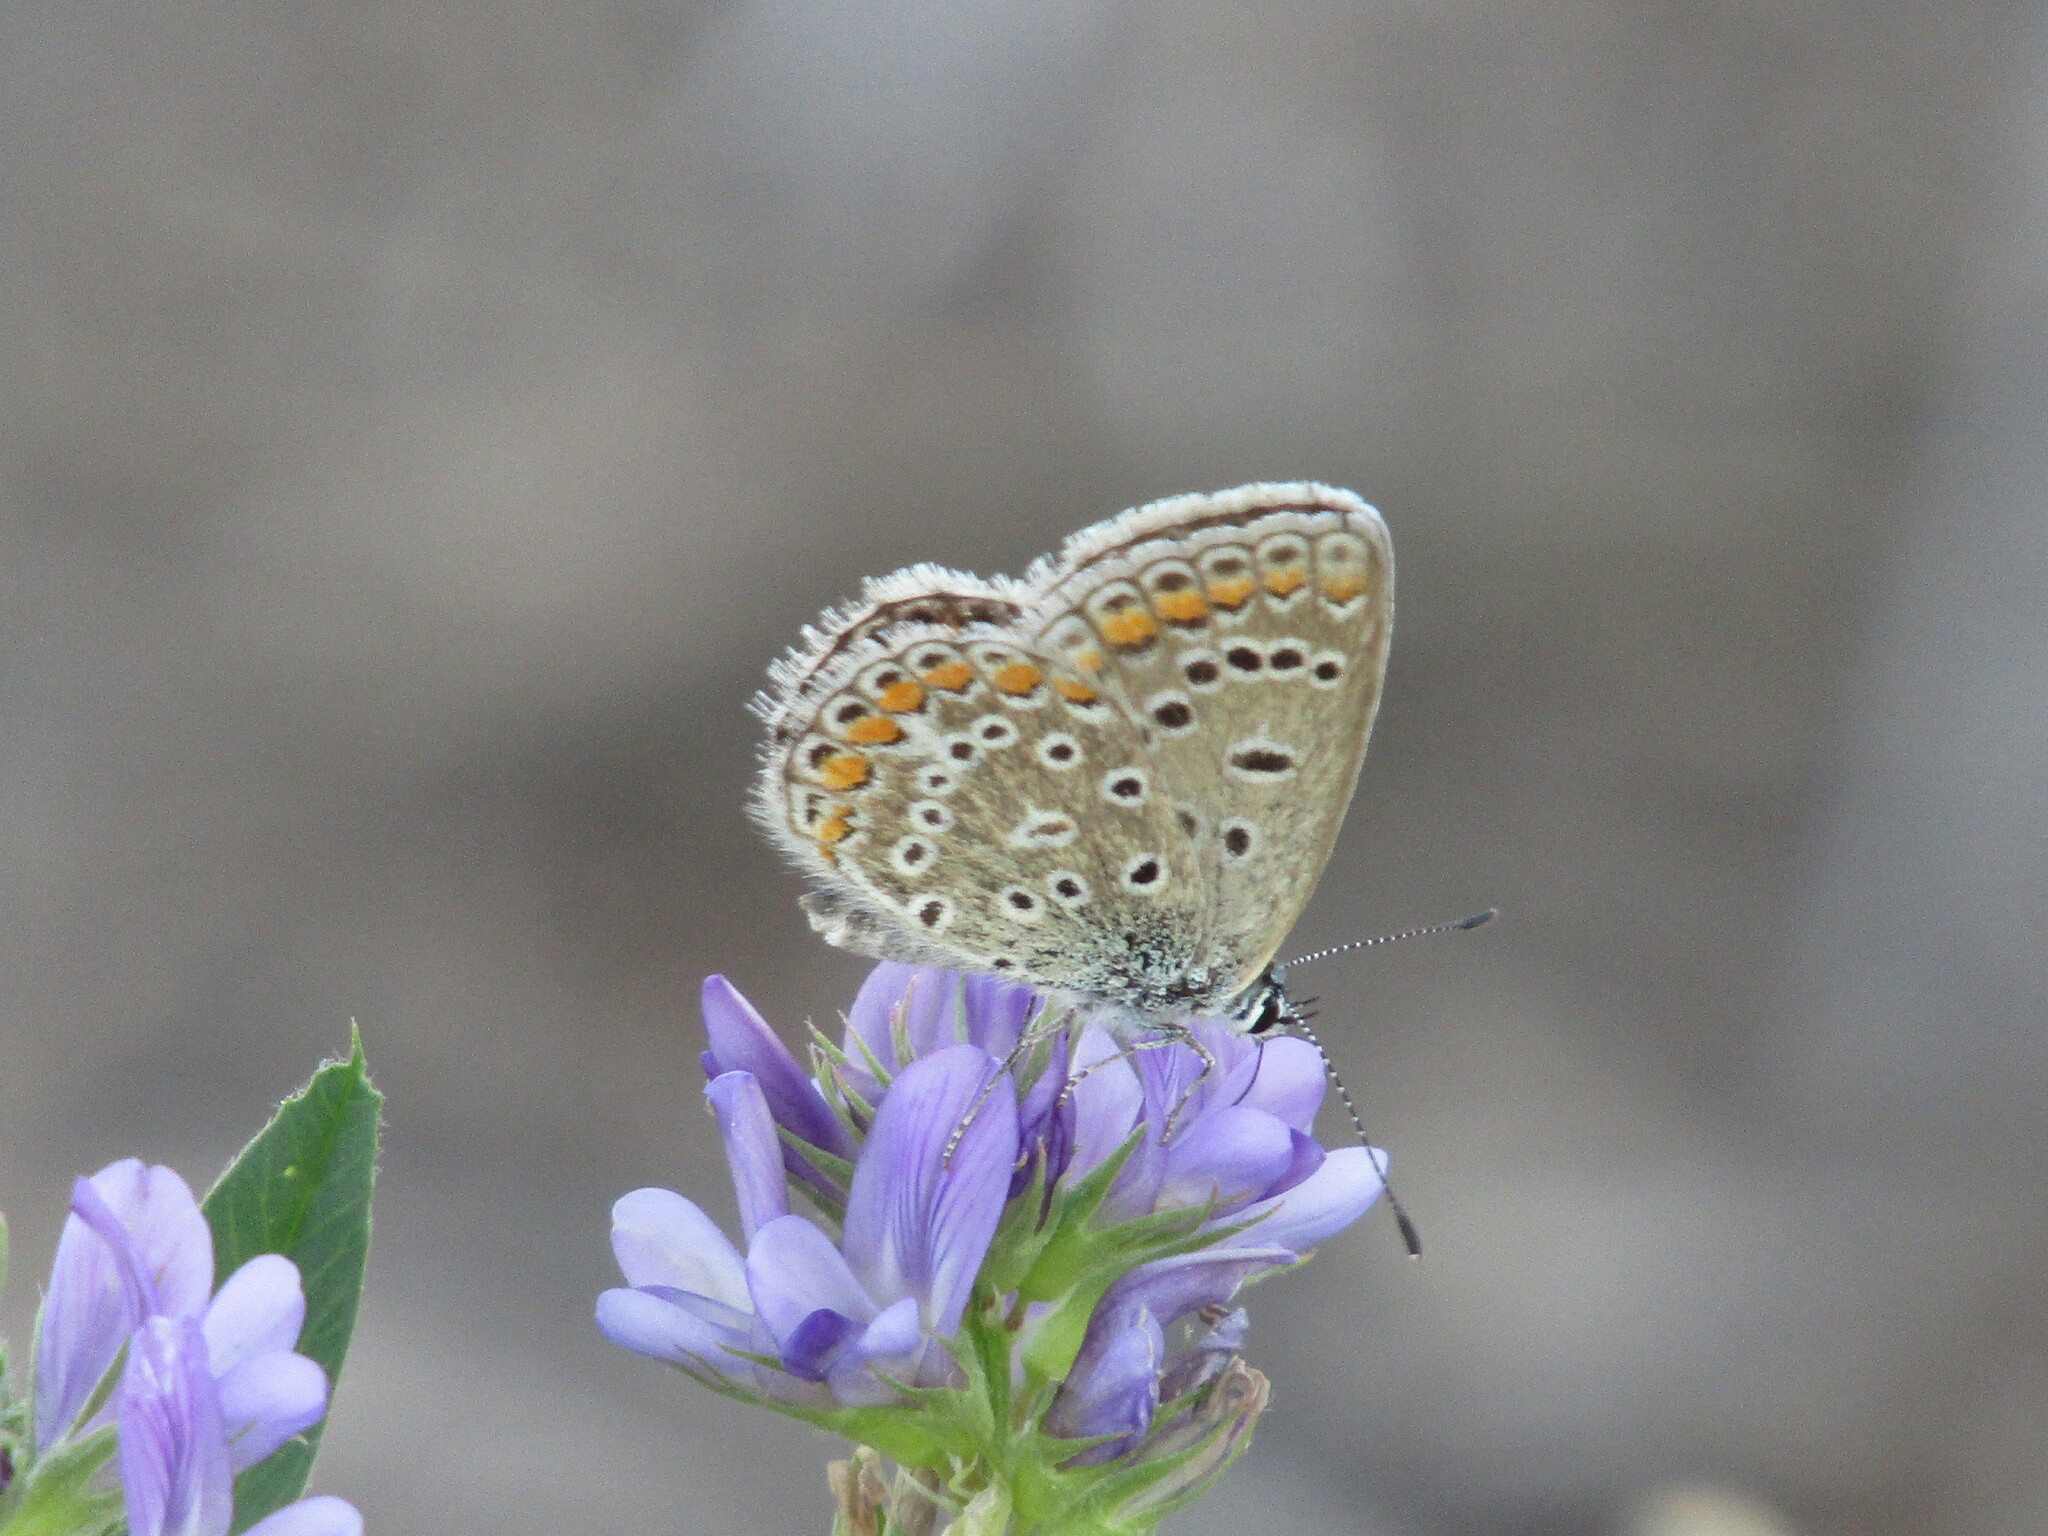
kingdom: Animalia
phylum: Arthropoda
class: Insecta
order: Lepidoptera
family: Lycaenidae
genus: Polyommatus
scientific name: Polyommatus icarus
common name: Common blue
